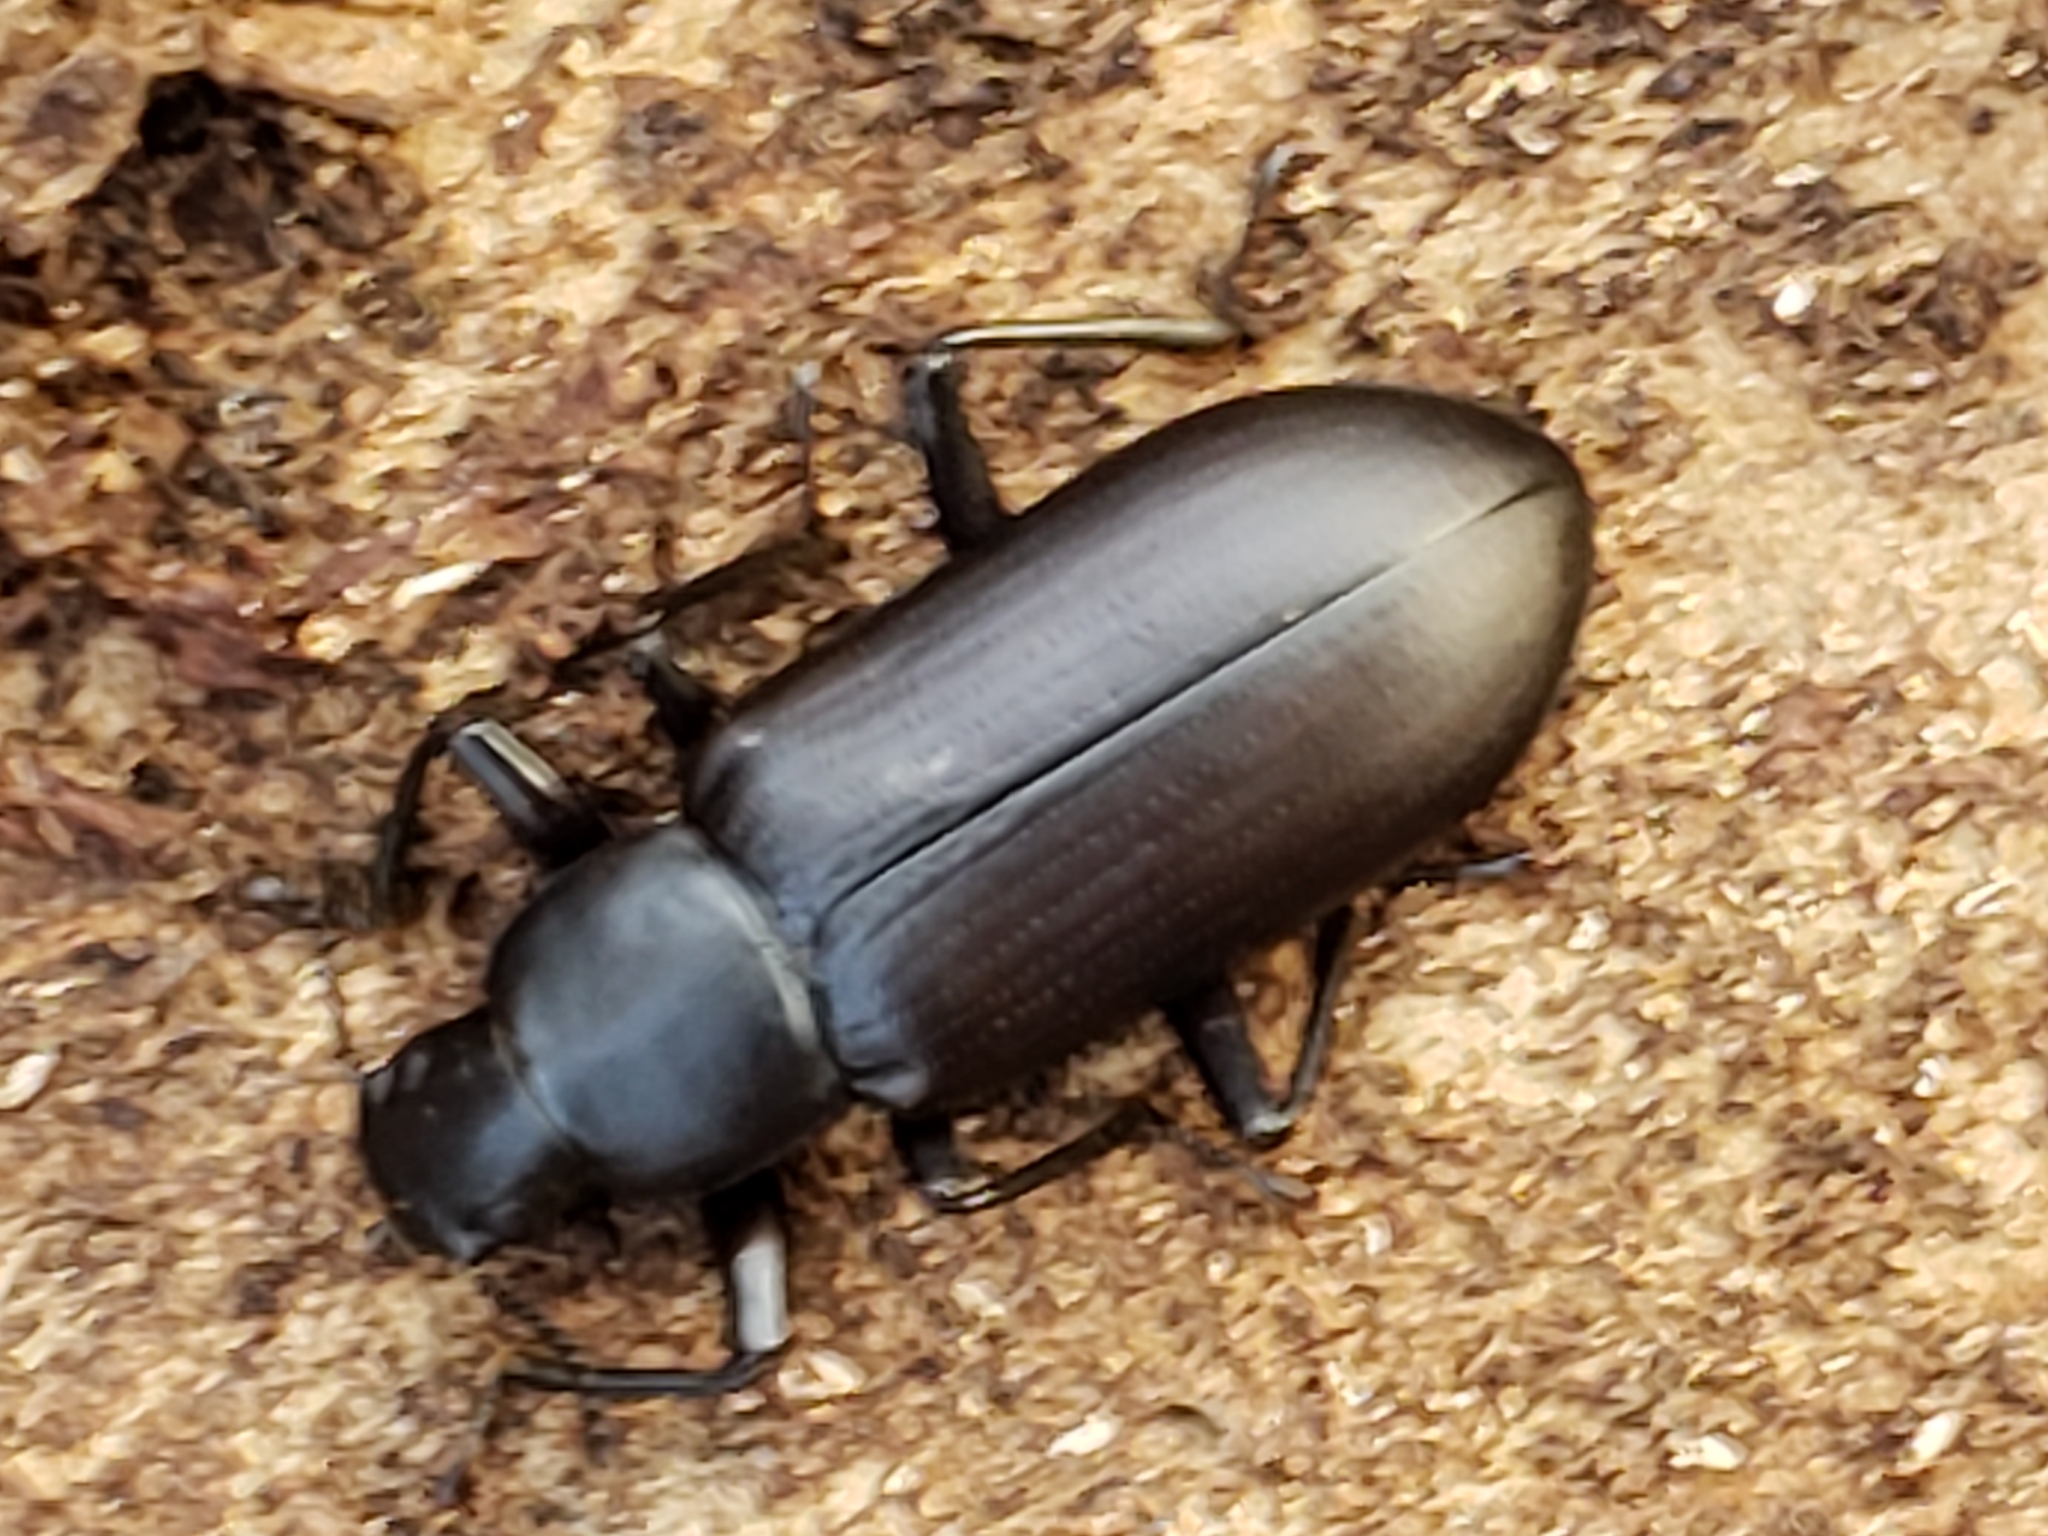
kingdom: Animalia
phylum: Arthropoda
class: Insecta
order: Coleoptera
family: Tenebrionidae
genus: Alobates
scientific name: Alobates
